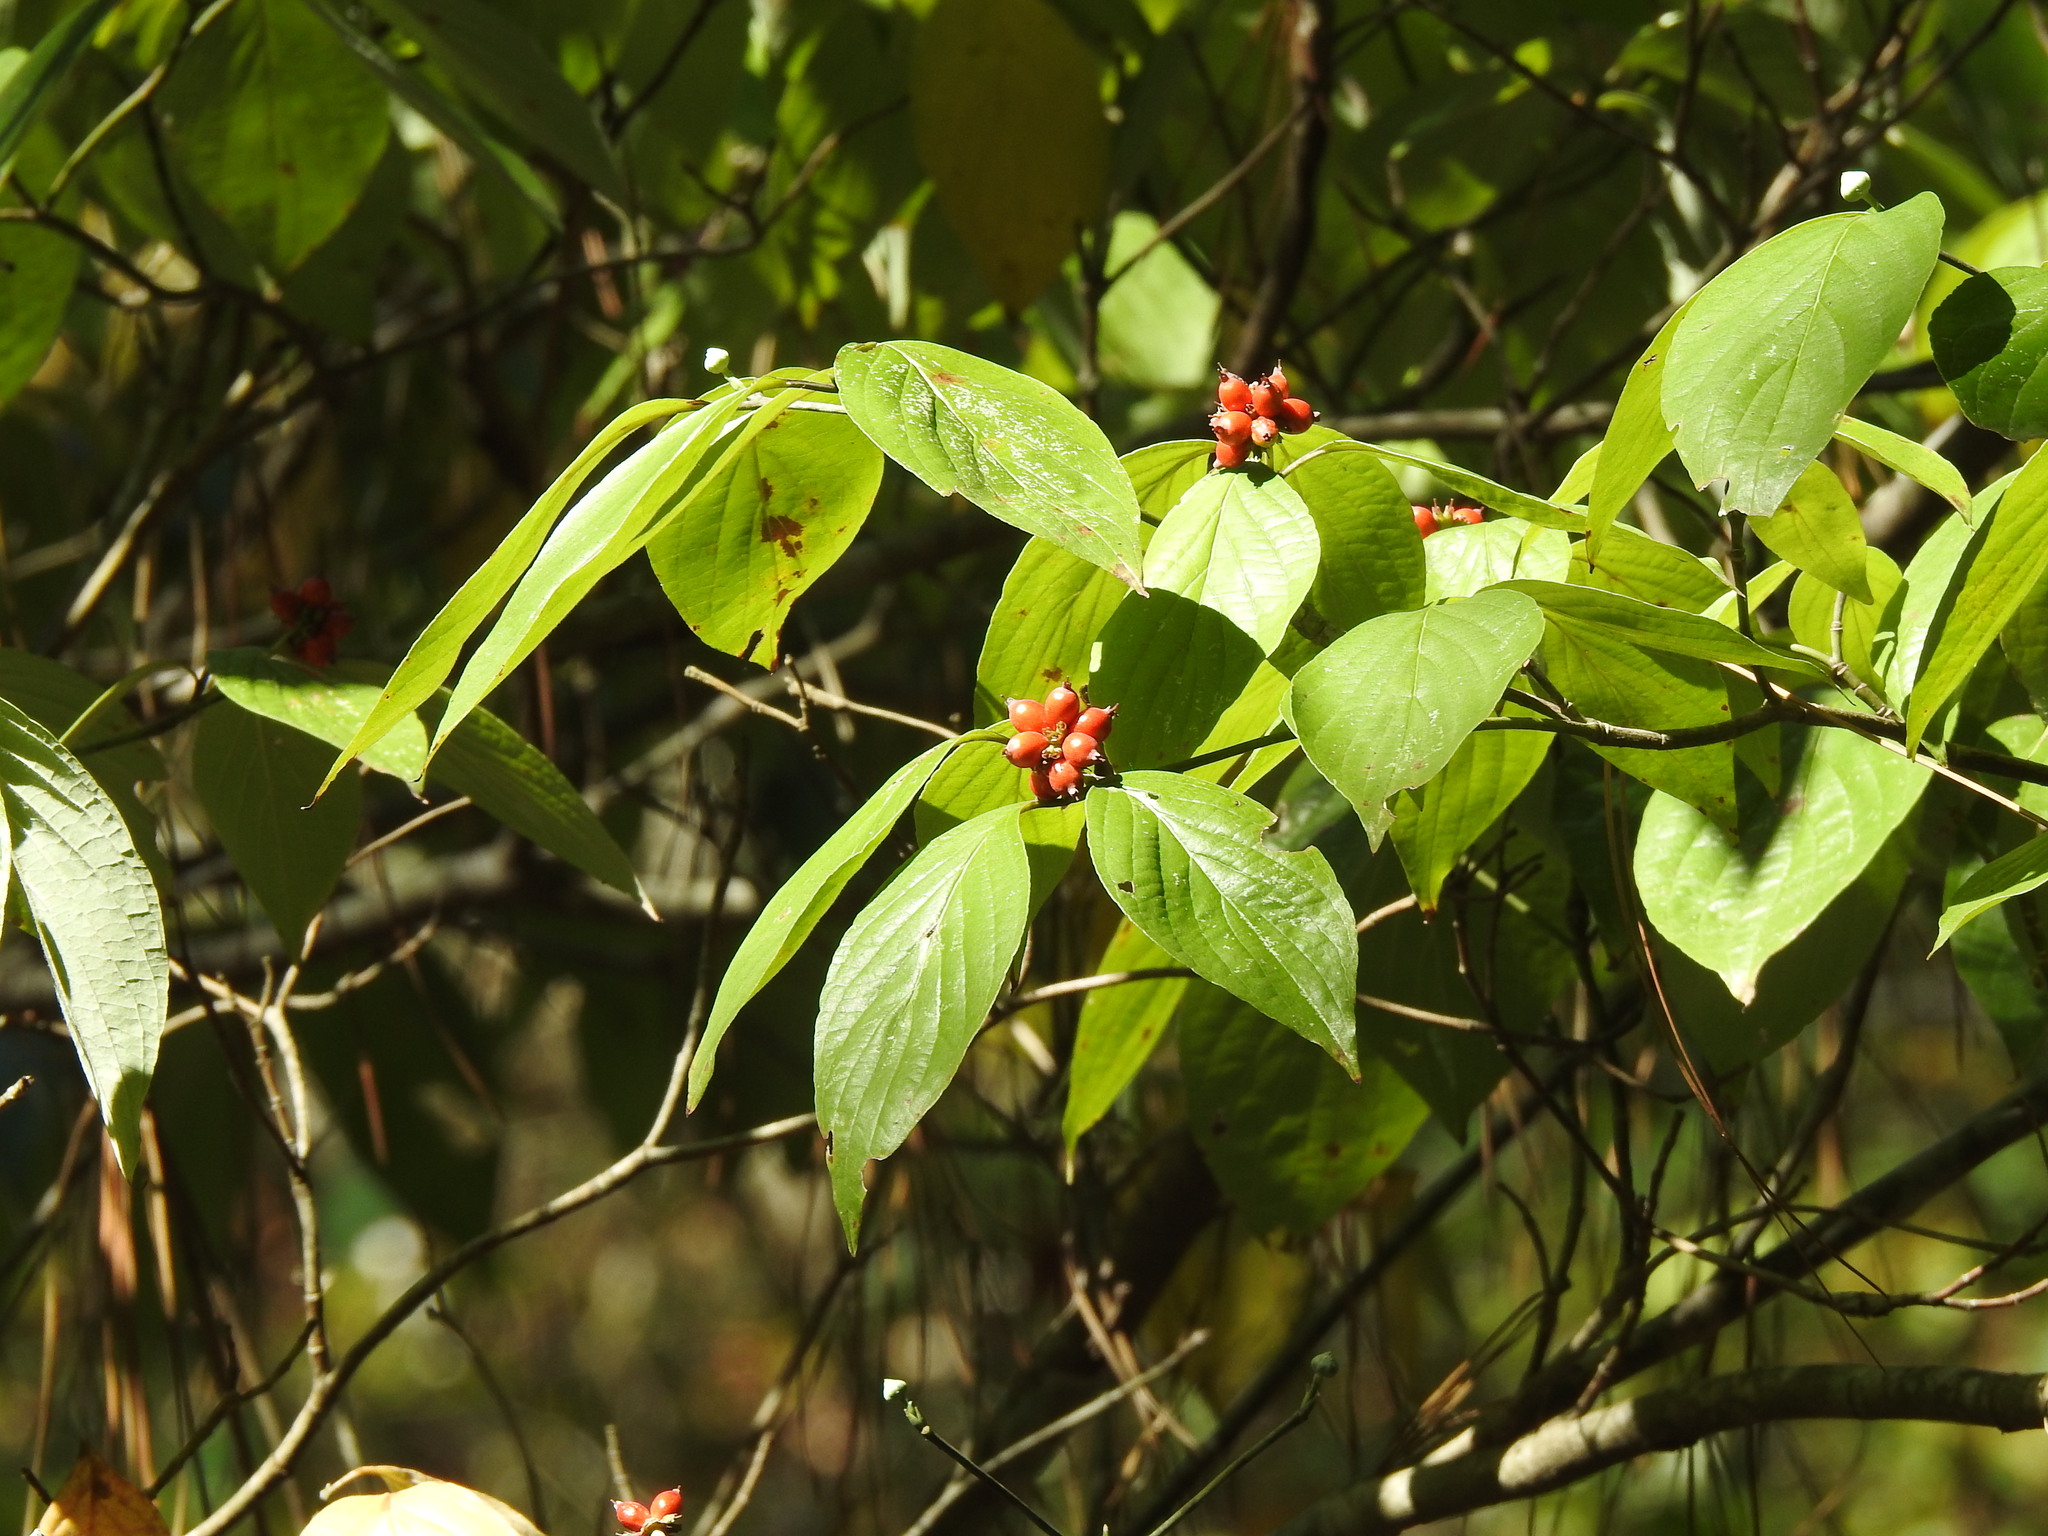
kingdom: Plantae
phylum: Tracheophyta
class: Magnoliopsida
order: Cornales
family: Cornaceae
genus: Cornus
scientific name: Cornus florida
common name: Flowering dogwood
